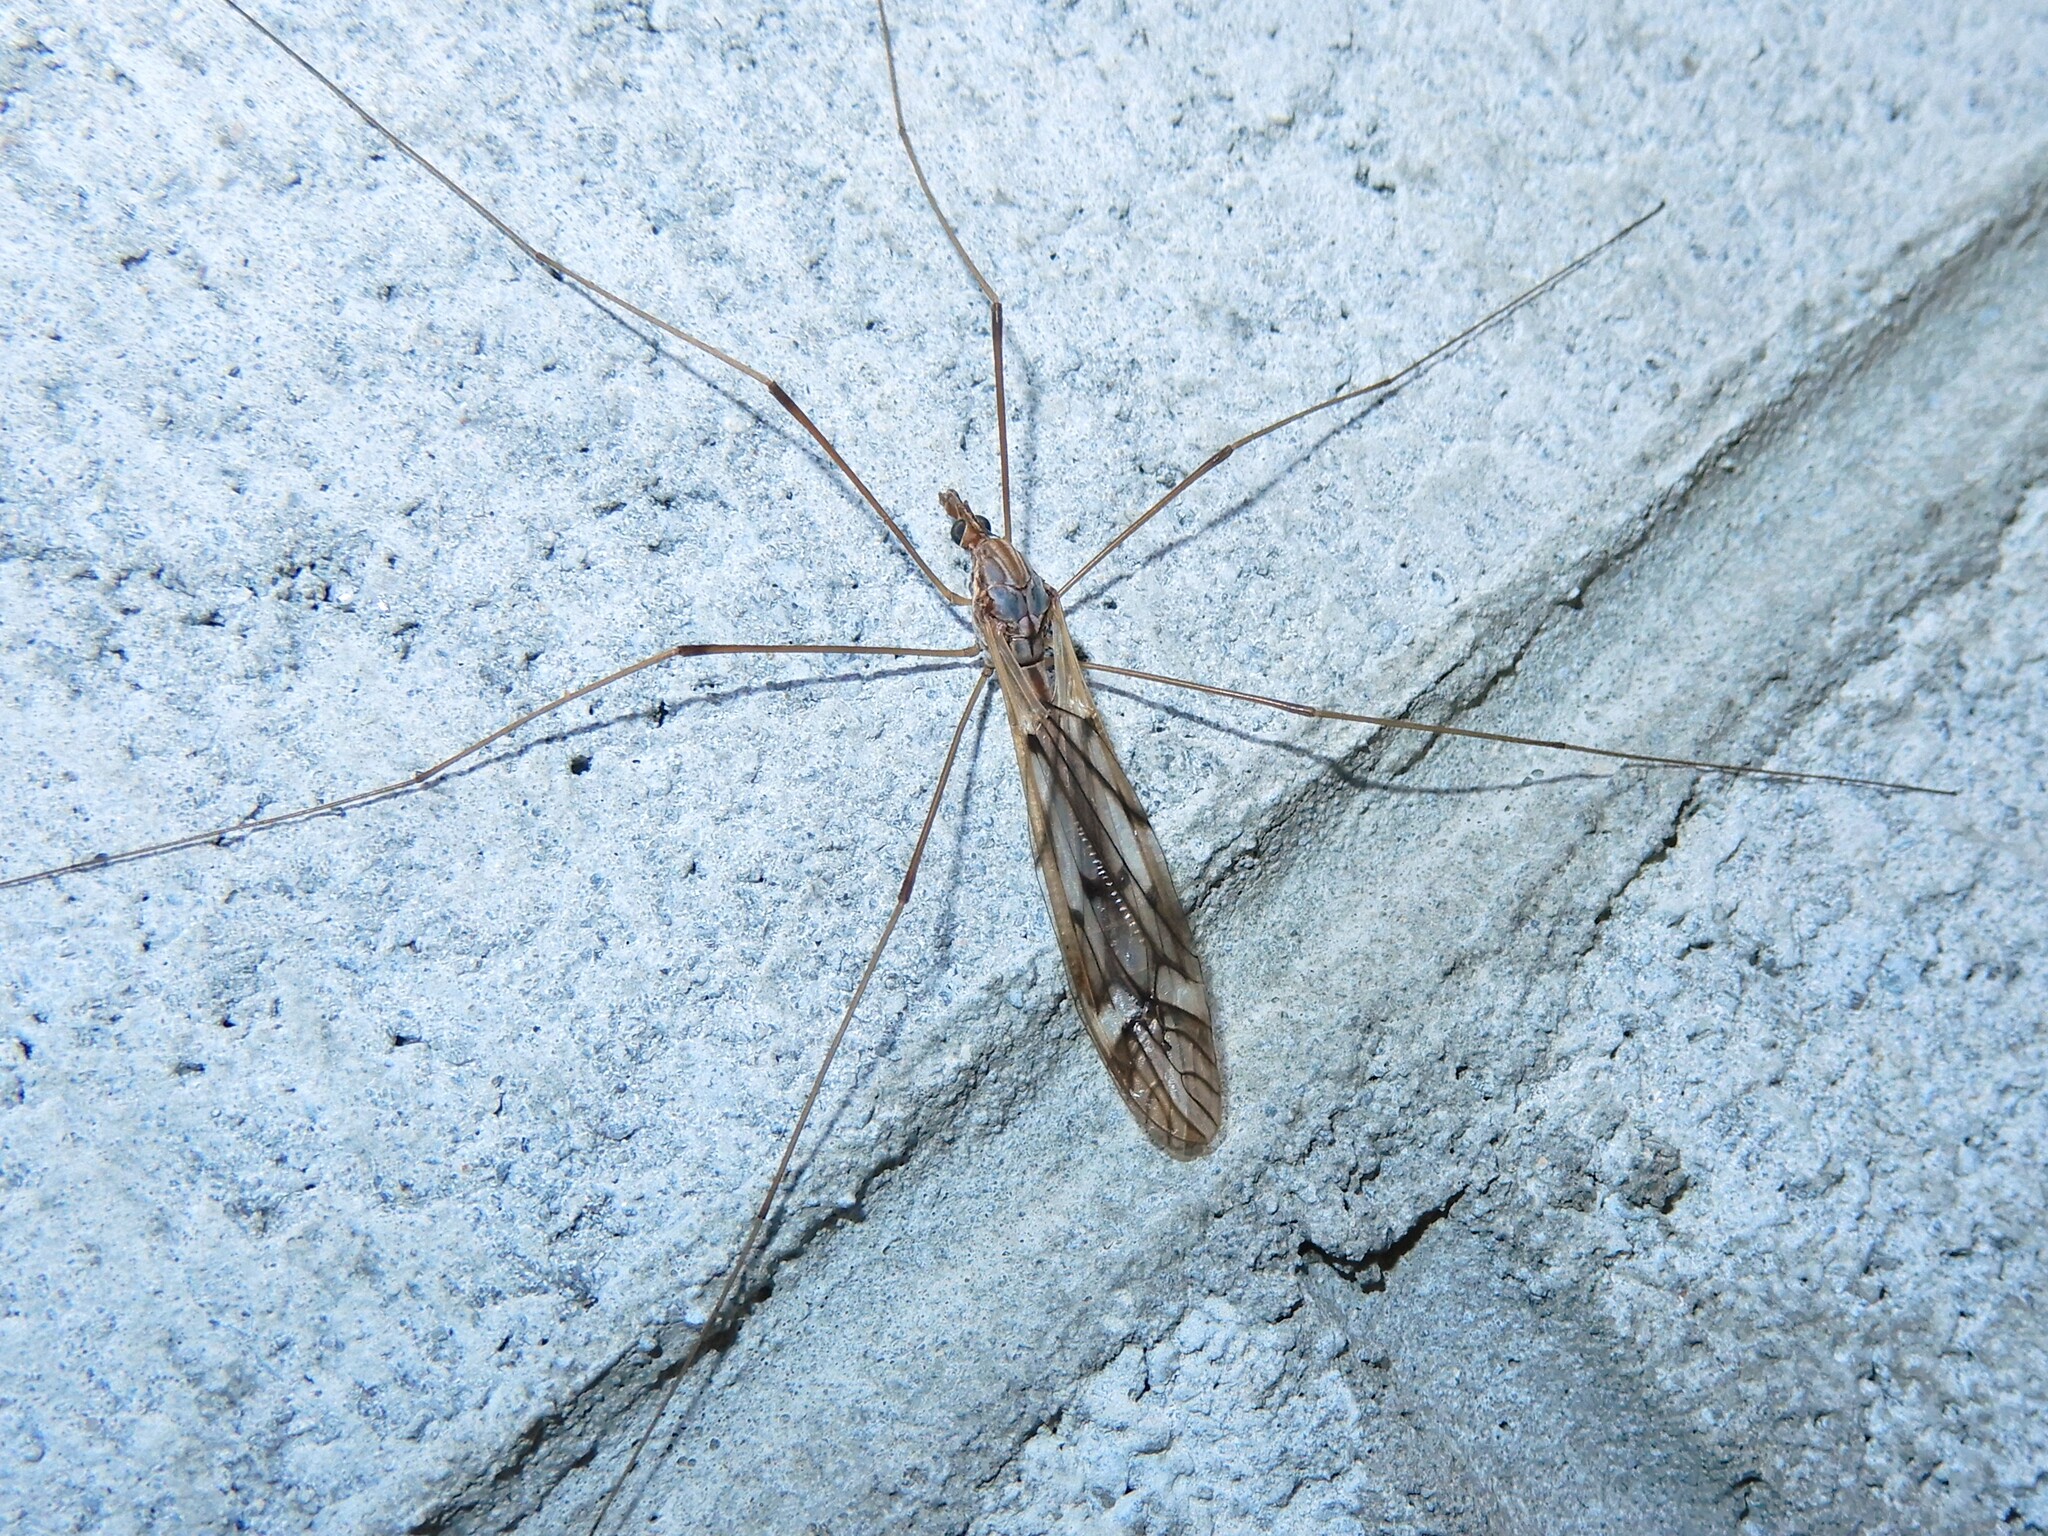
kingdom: Animalia
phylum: Arthropoda
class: Insecta
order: Diptera
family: Tipulidae
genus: Zelandotipula
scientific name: Zelandotipula novarae
